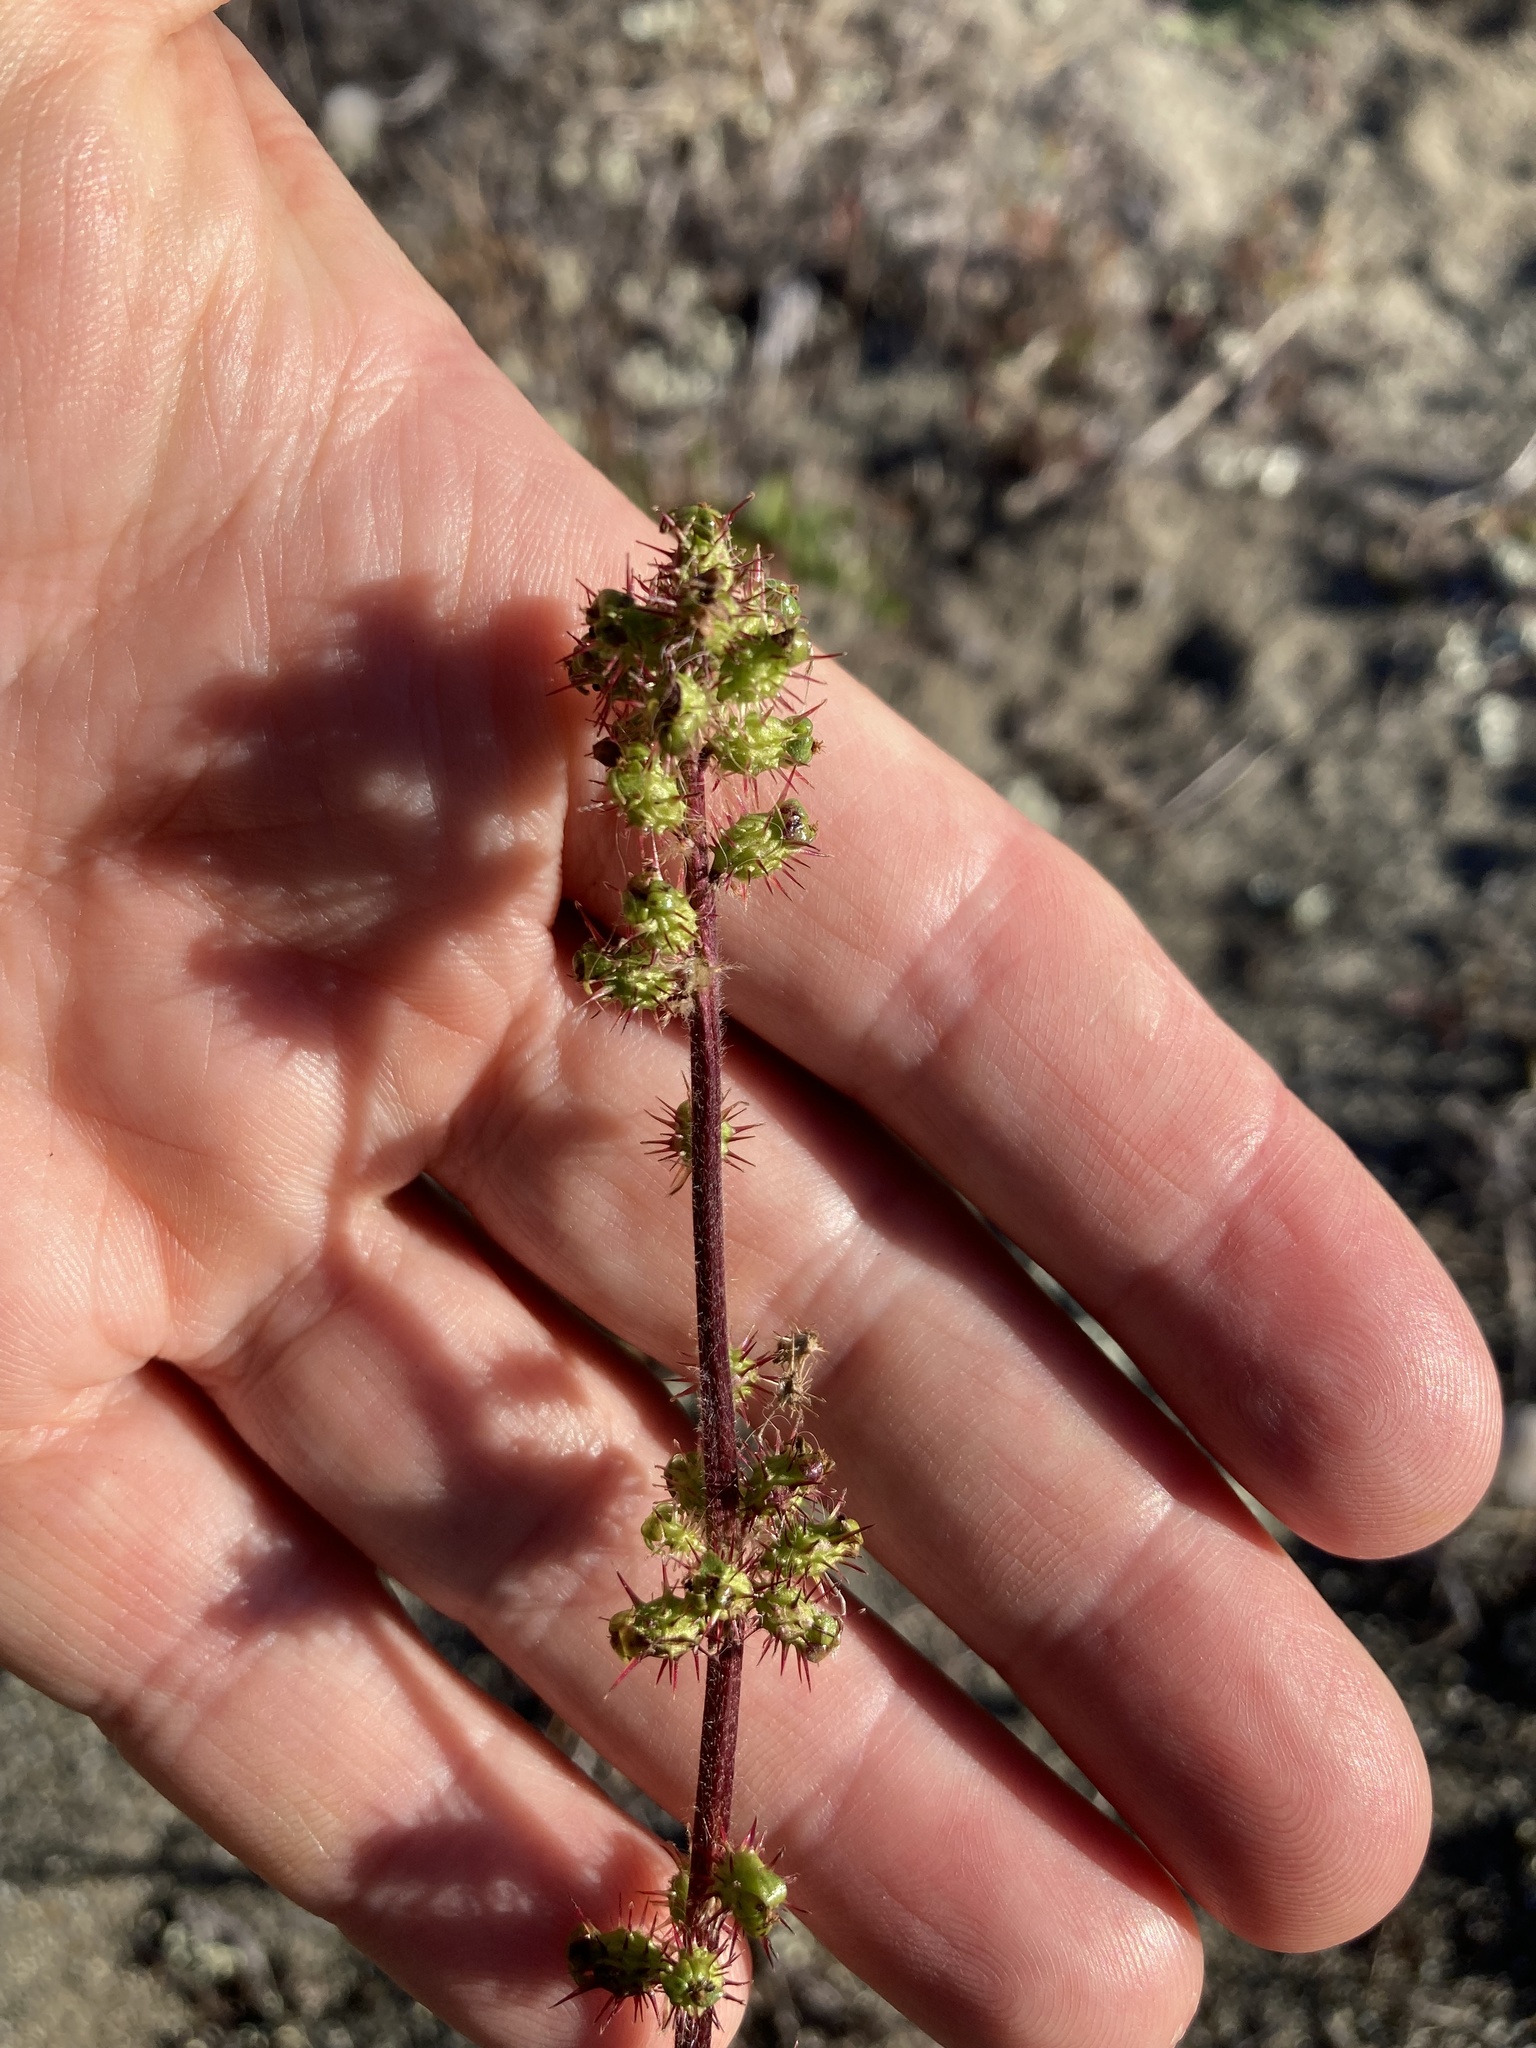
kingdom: Plantae
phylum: Tracheophyta
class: Magnoliopsida
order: Rosales
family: Rosaceae
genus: Acaena
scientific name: Acaena agnipila
